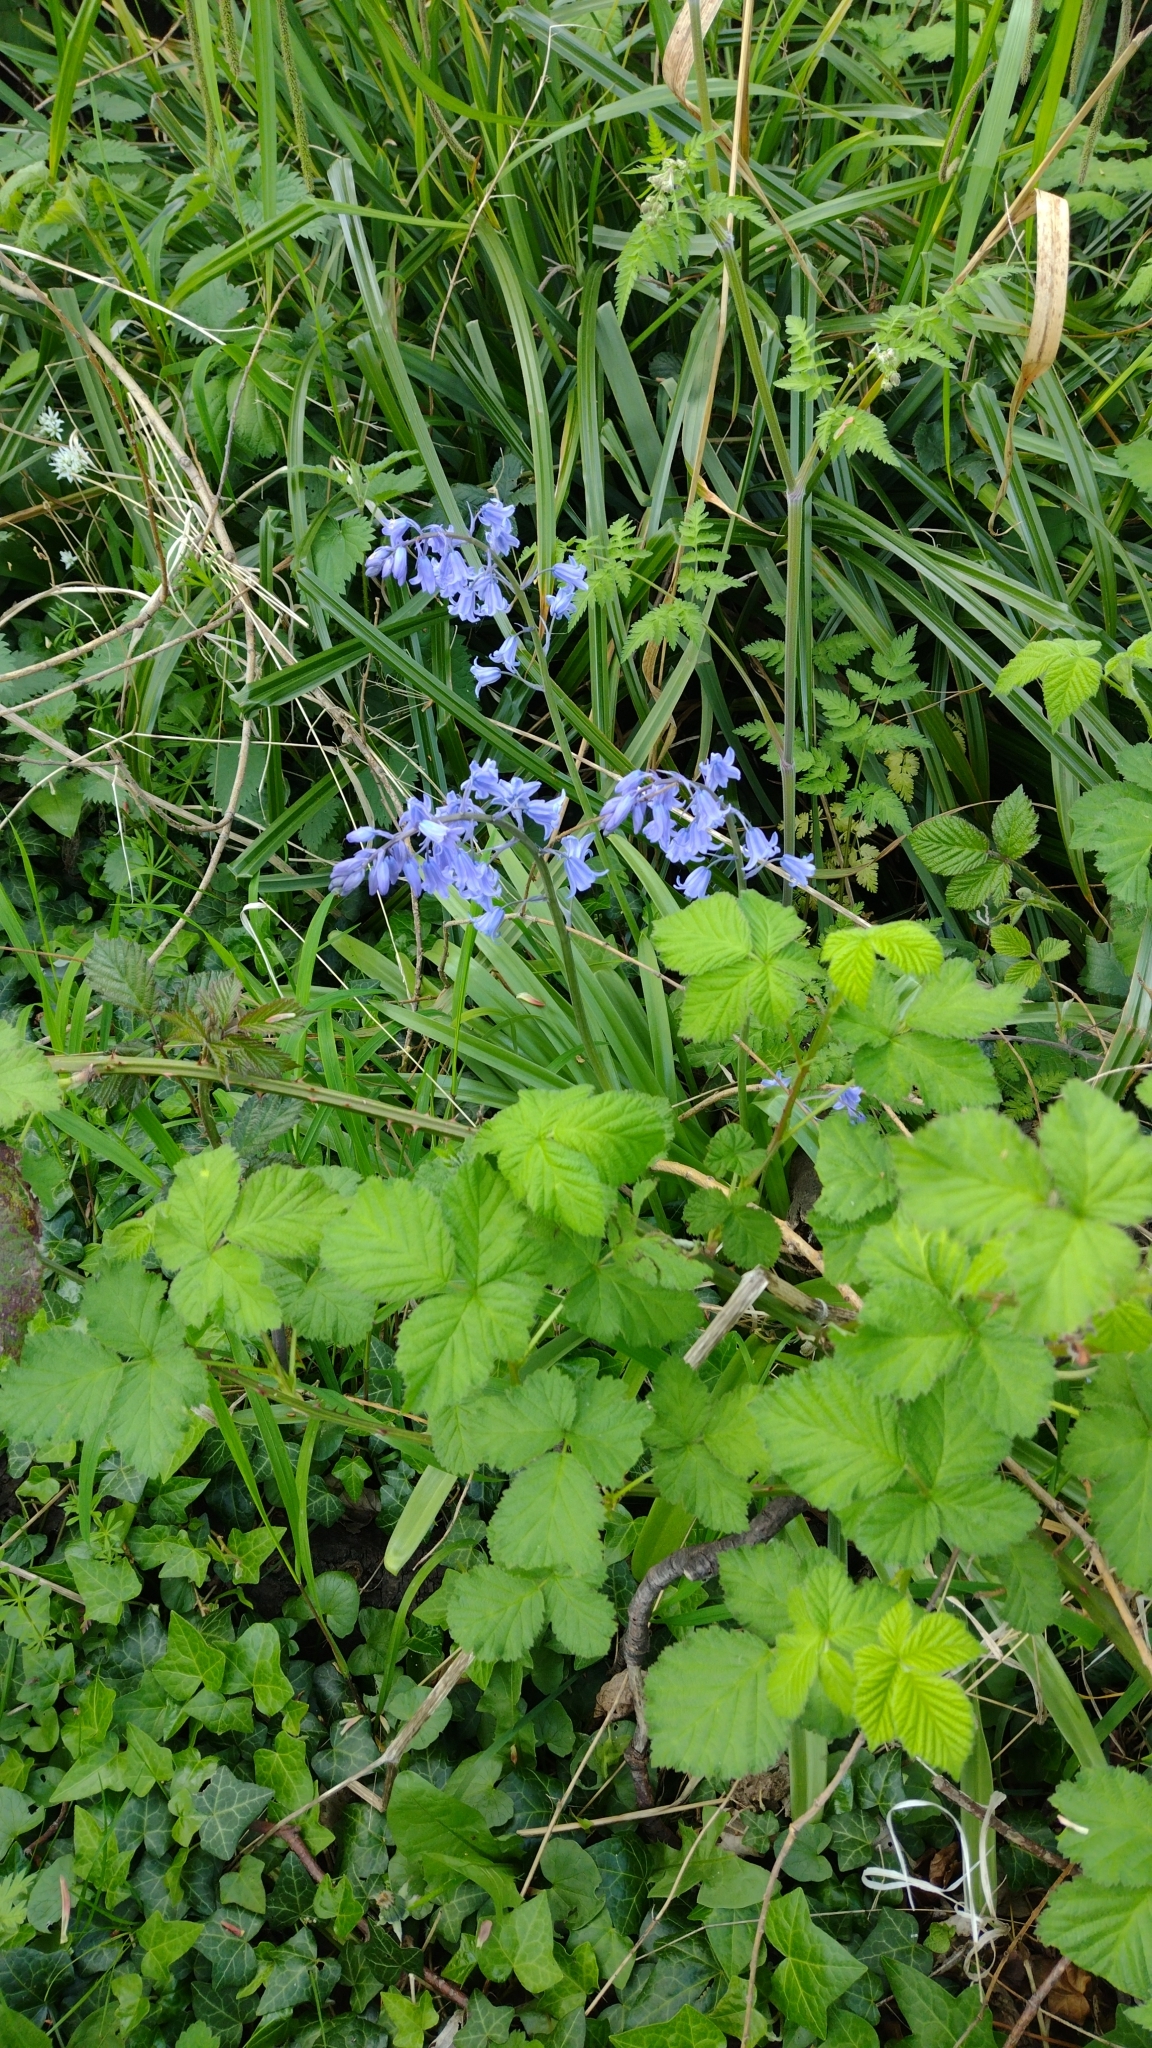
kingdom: Plantae
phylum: Tracheophyta
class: Liliopsida
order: Asparagales
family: Asparagaceae
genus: Hyacinthoides
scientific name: Hyacinthoides massartiana
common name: Hyacinthoides
